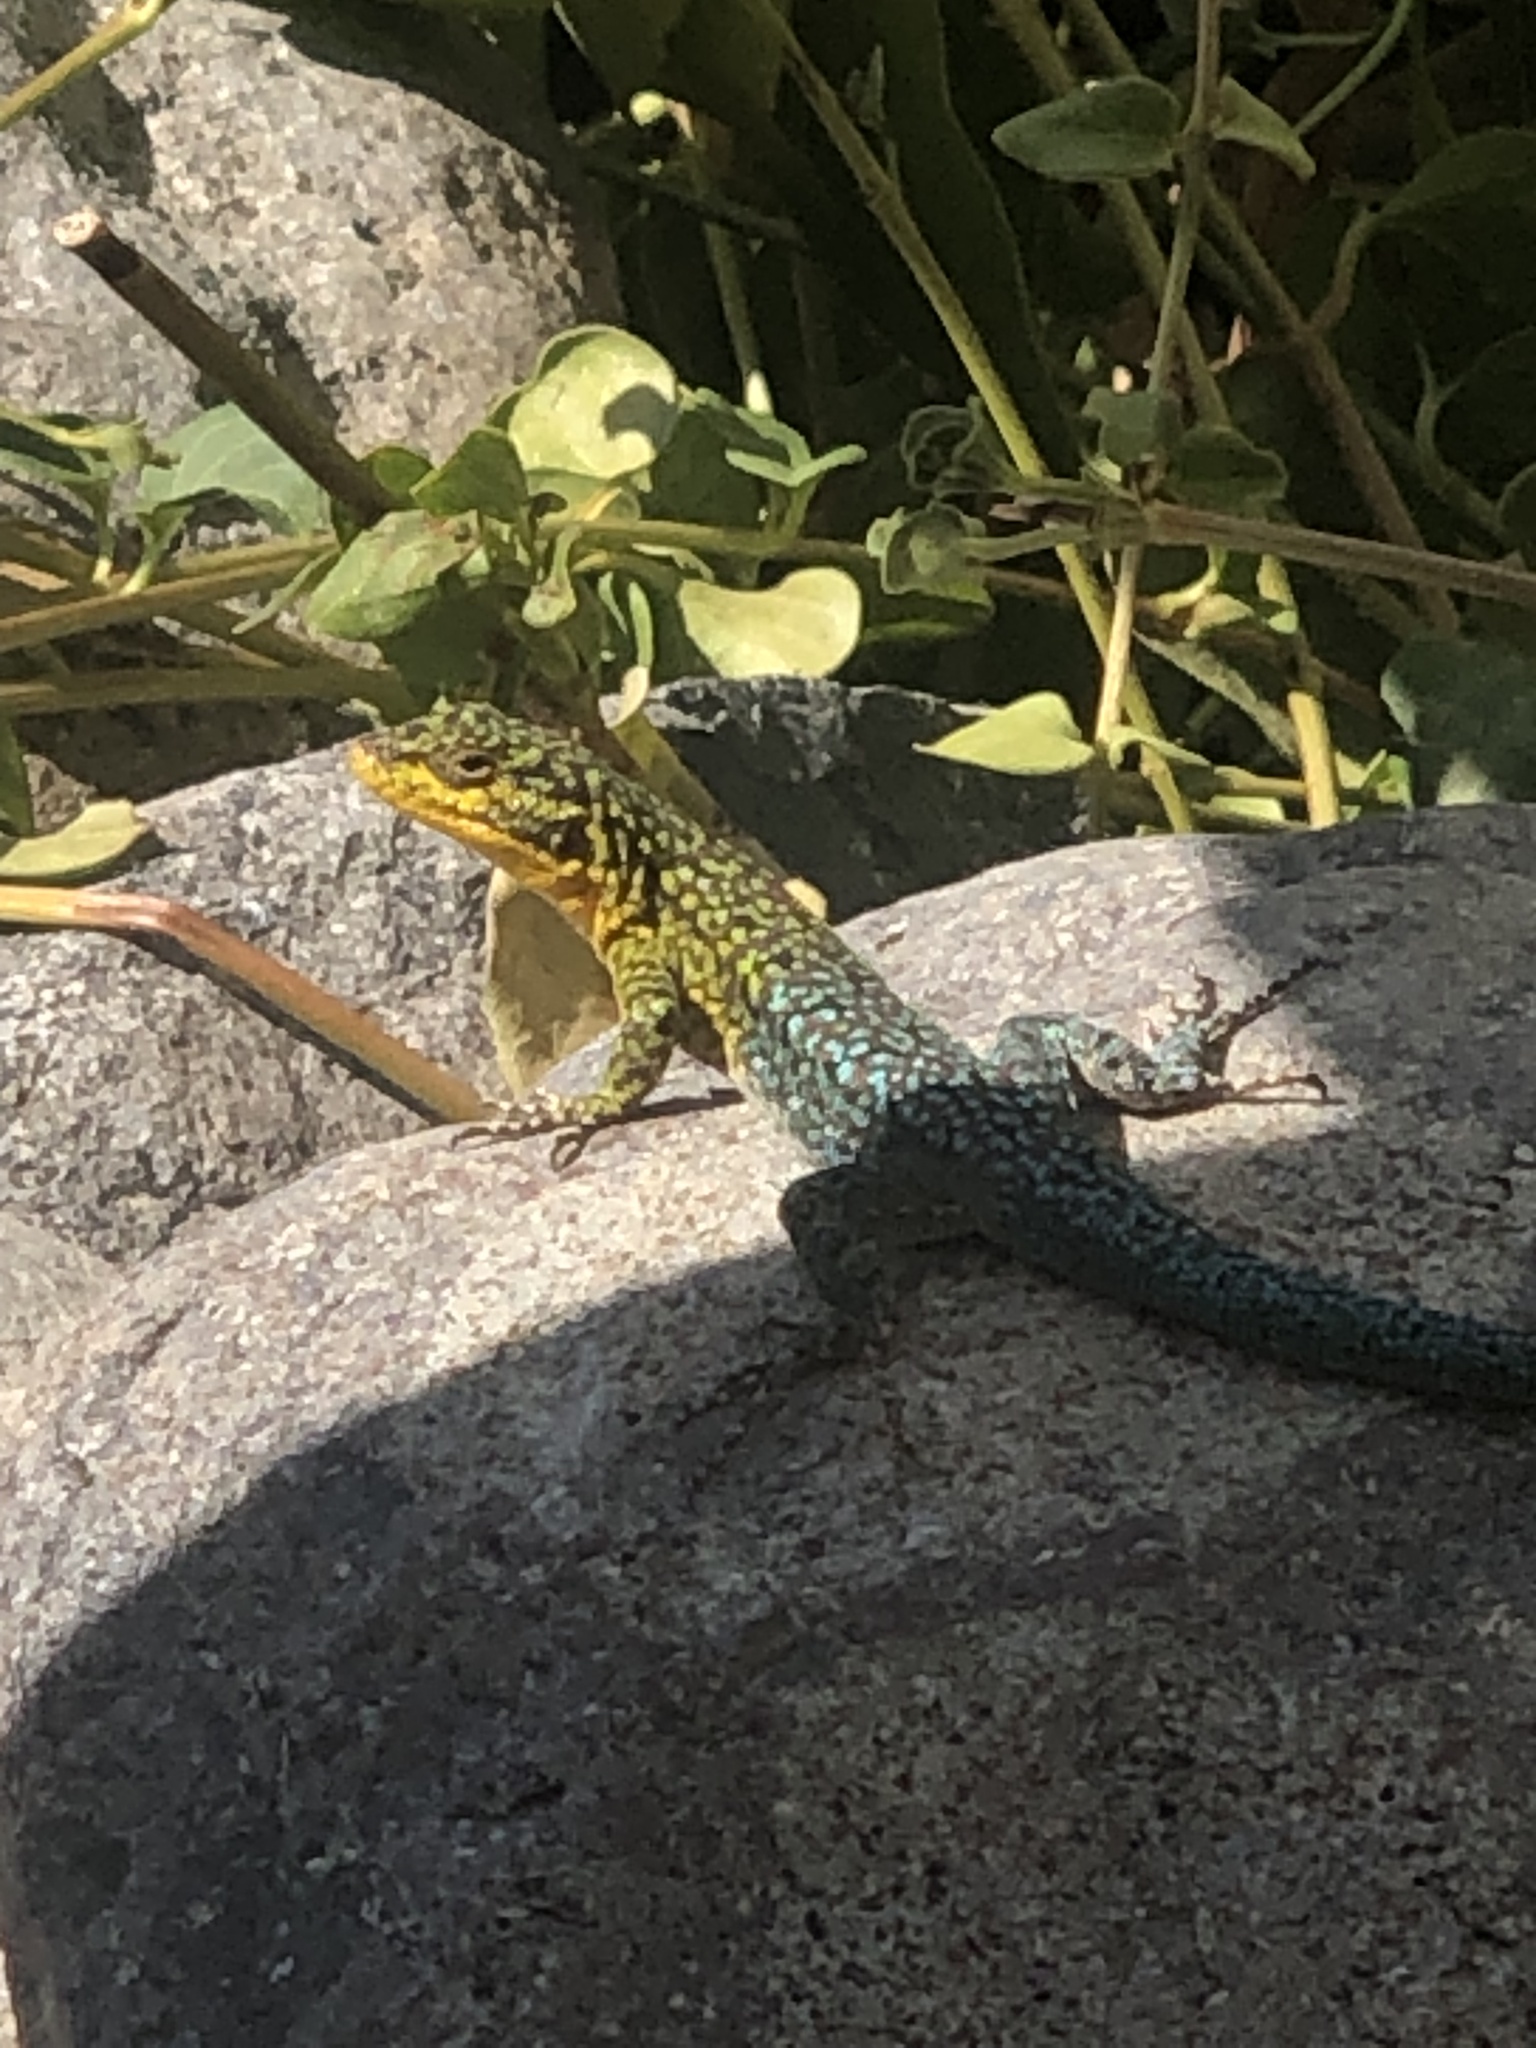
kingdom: Animalia
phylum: Chordata
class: Squamata
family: Liolaemidae
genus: Liolaemus
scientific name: Liolaemus tenuis
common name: Thin tree iguana
